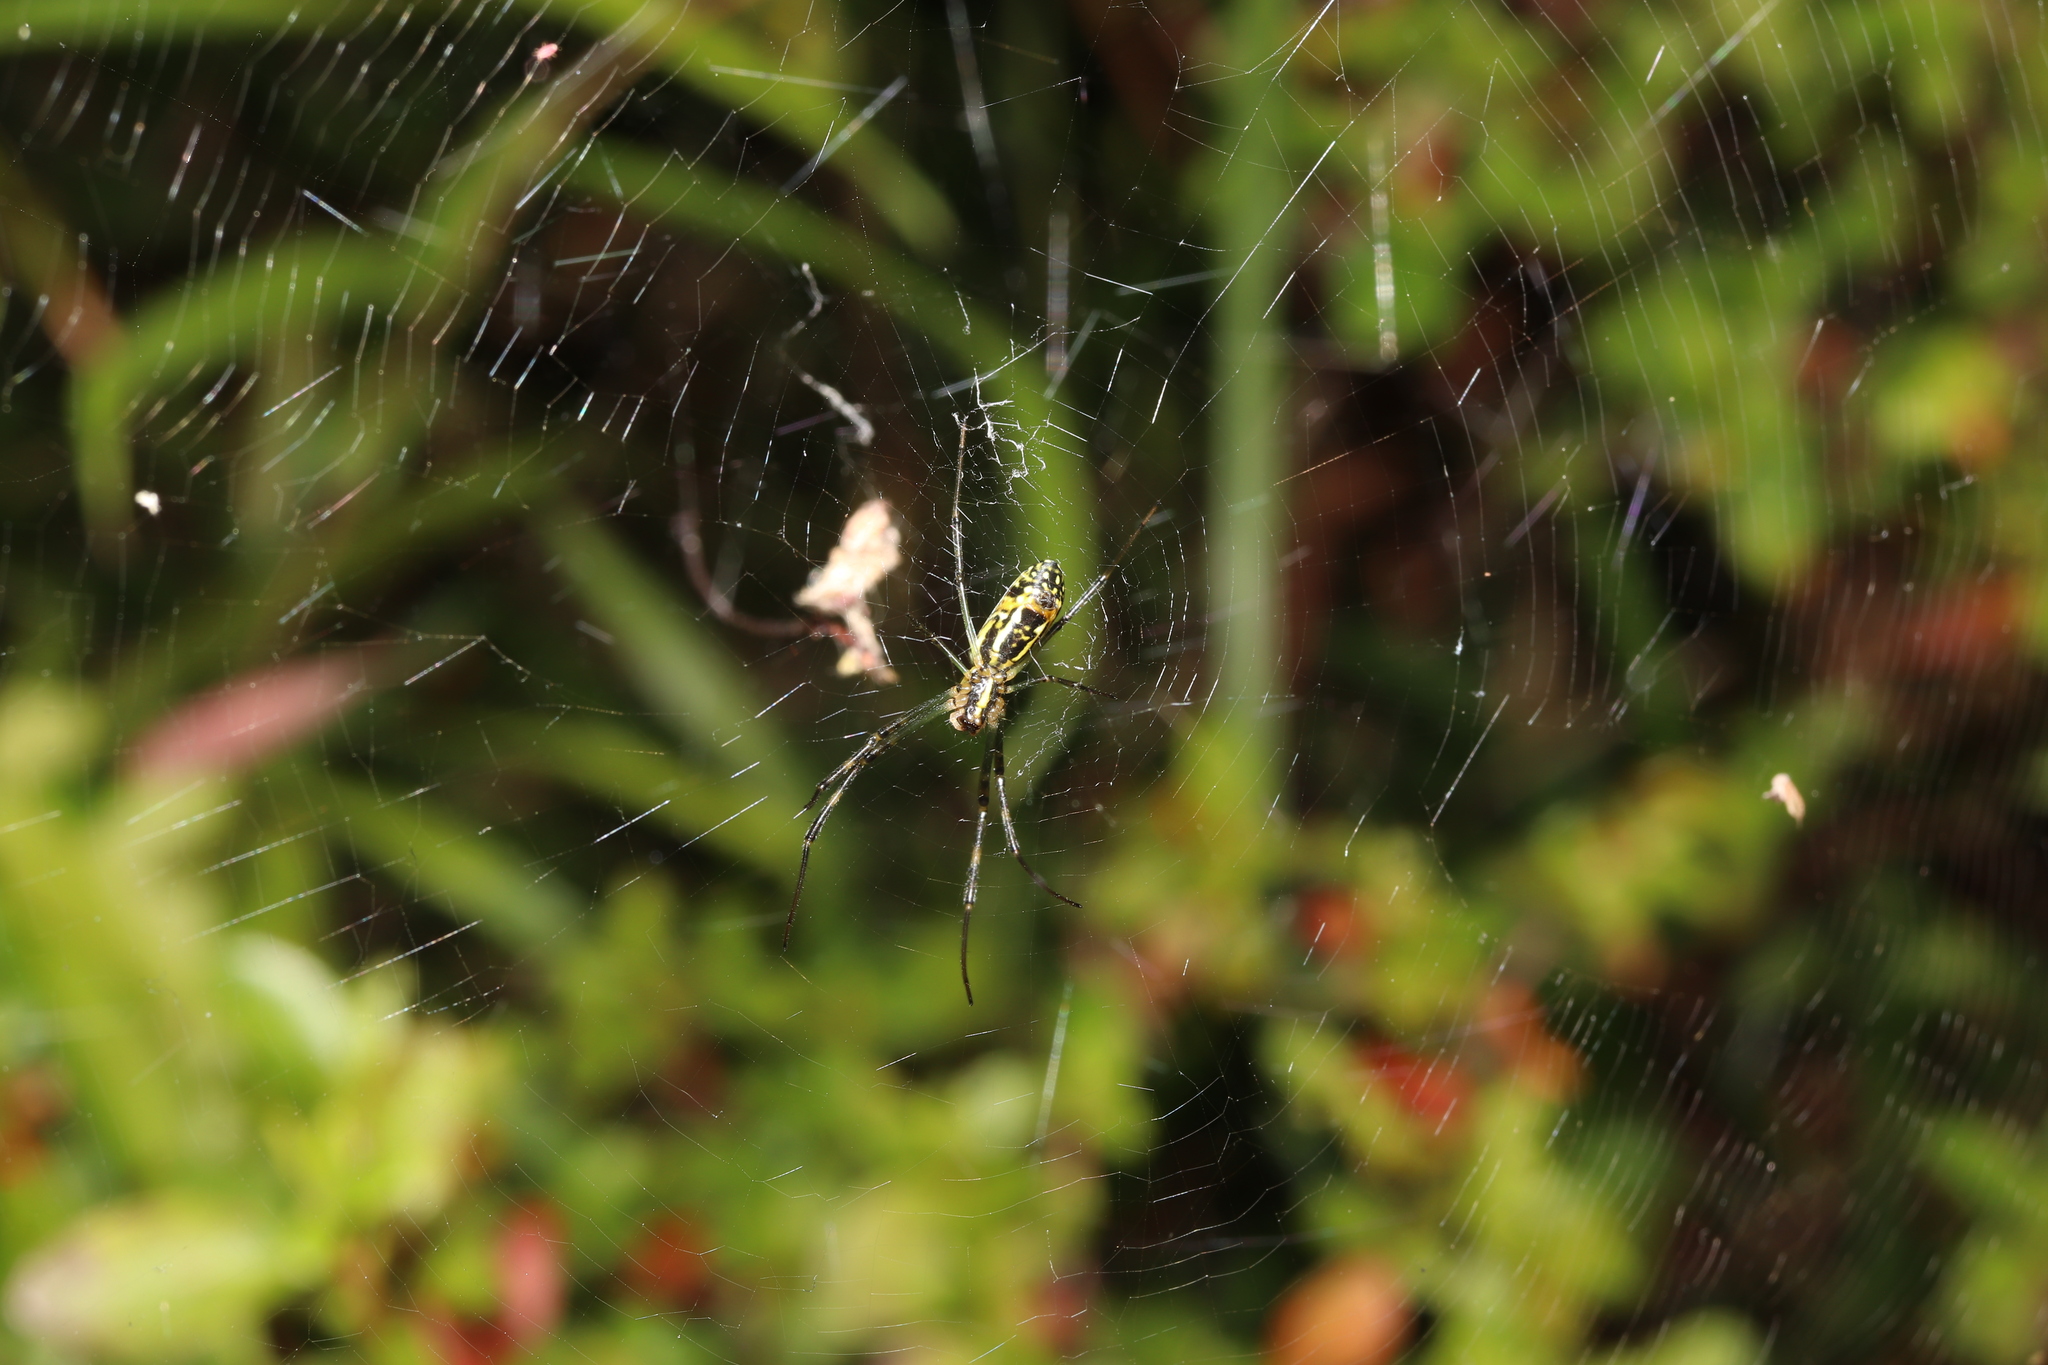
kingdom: Animalia
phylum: Arthropoda
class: Arachnida
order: Araneae
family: Araneidae
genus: Trichonephila
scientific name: Trichonephila clavata
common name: Jorō spider
